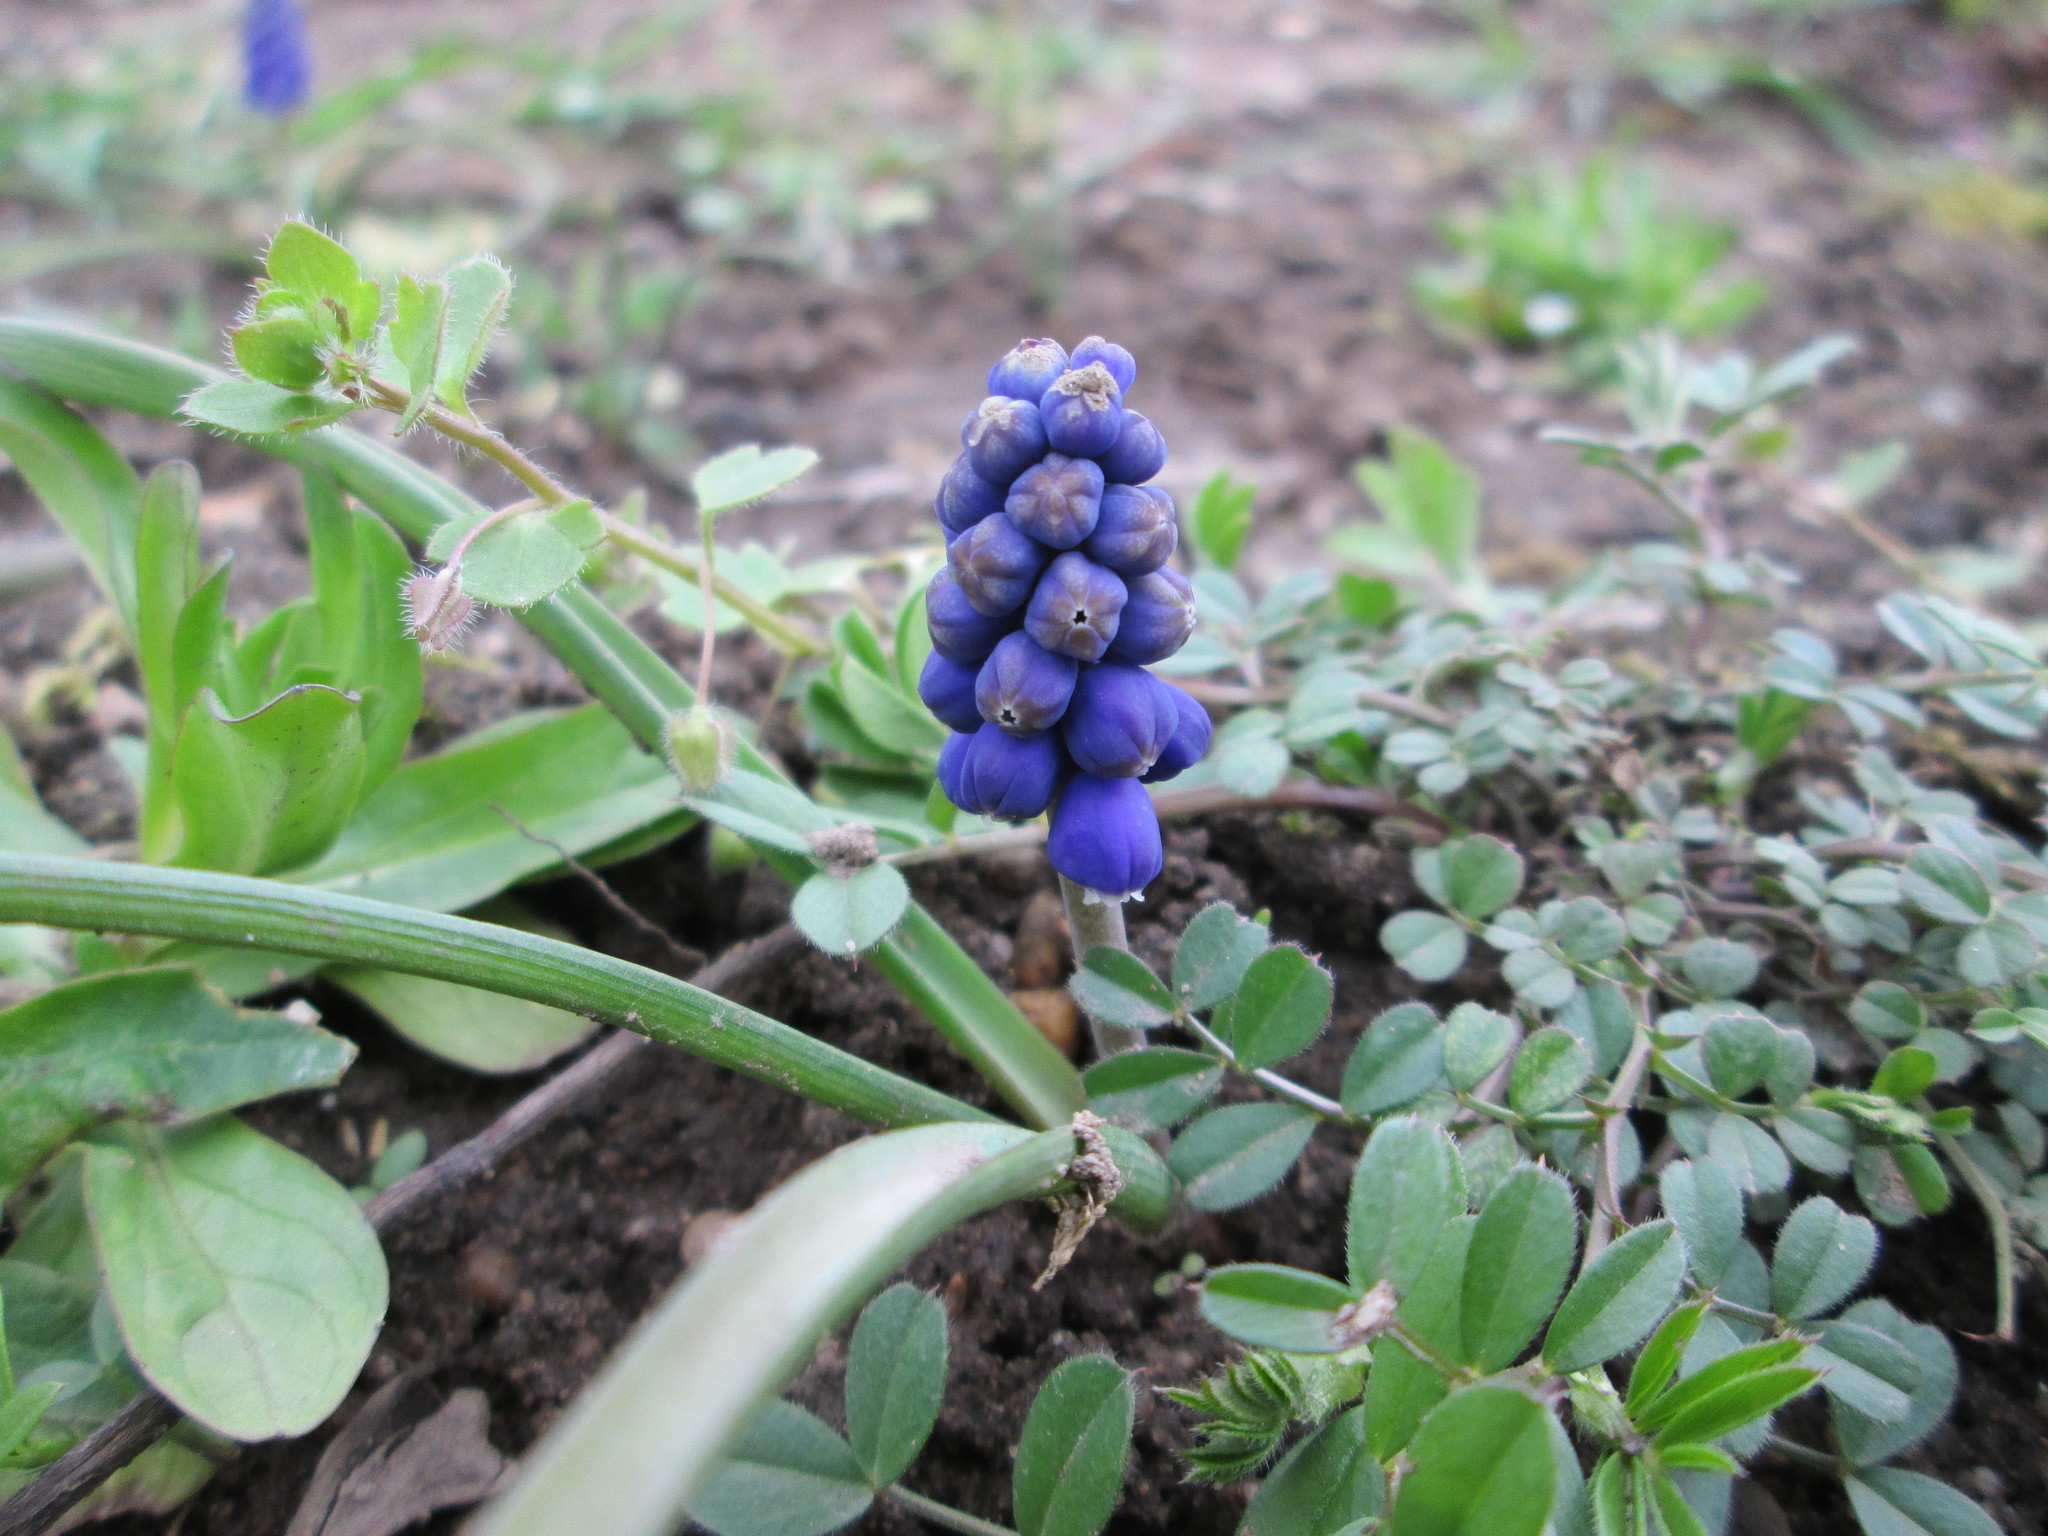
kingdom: Plantae
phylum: Tracheophyta
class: Liliopsida
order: Asparagales
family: Asparagaceae
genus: Muscari
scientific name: Muscari armeniacum
